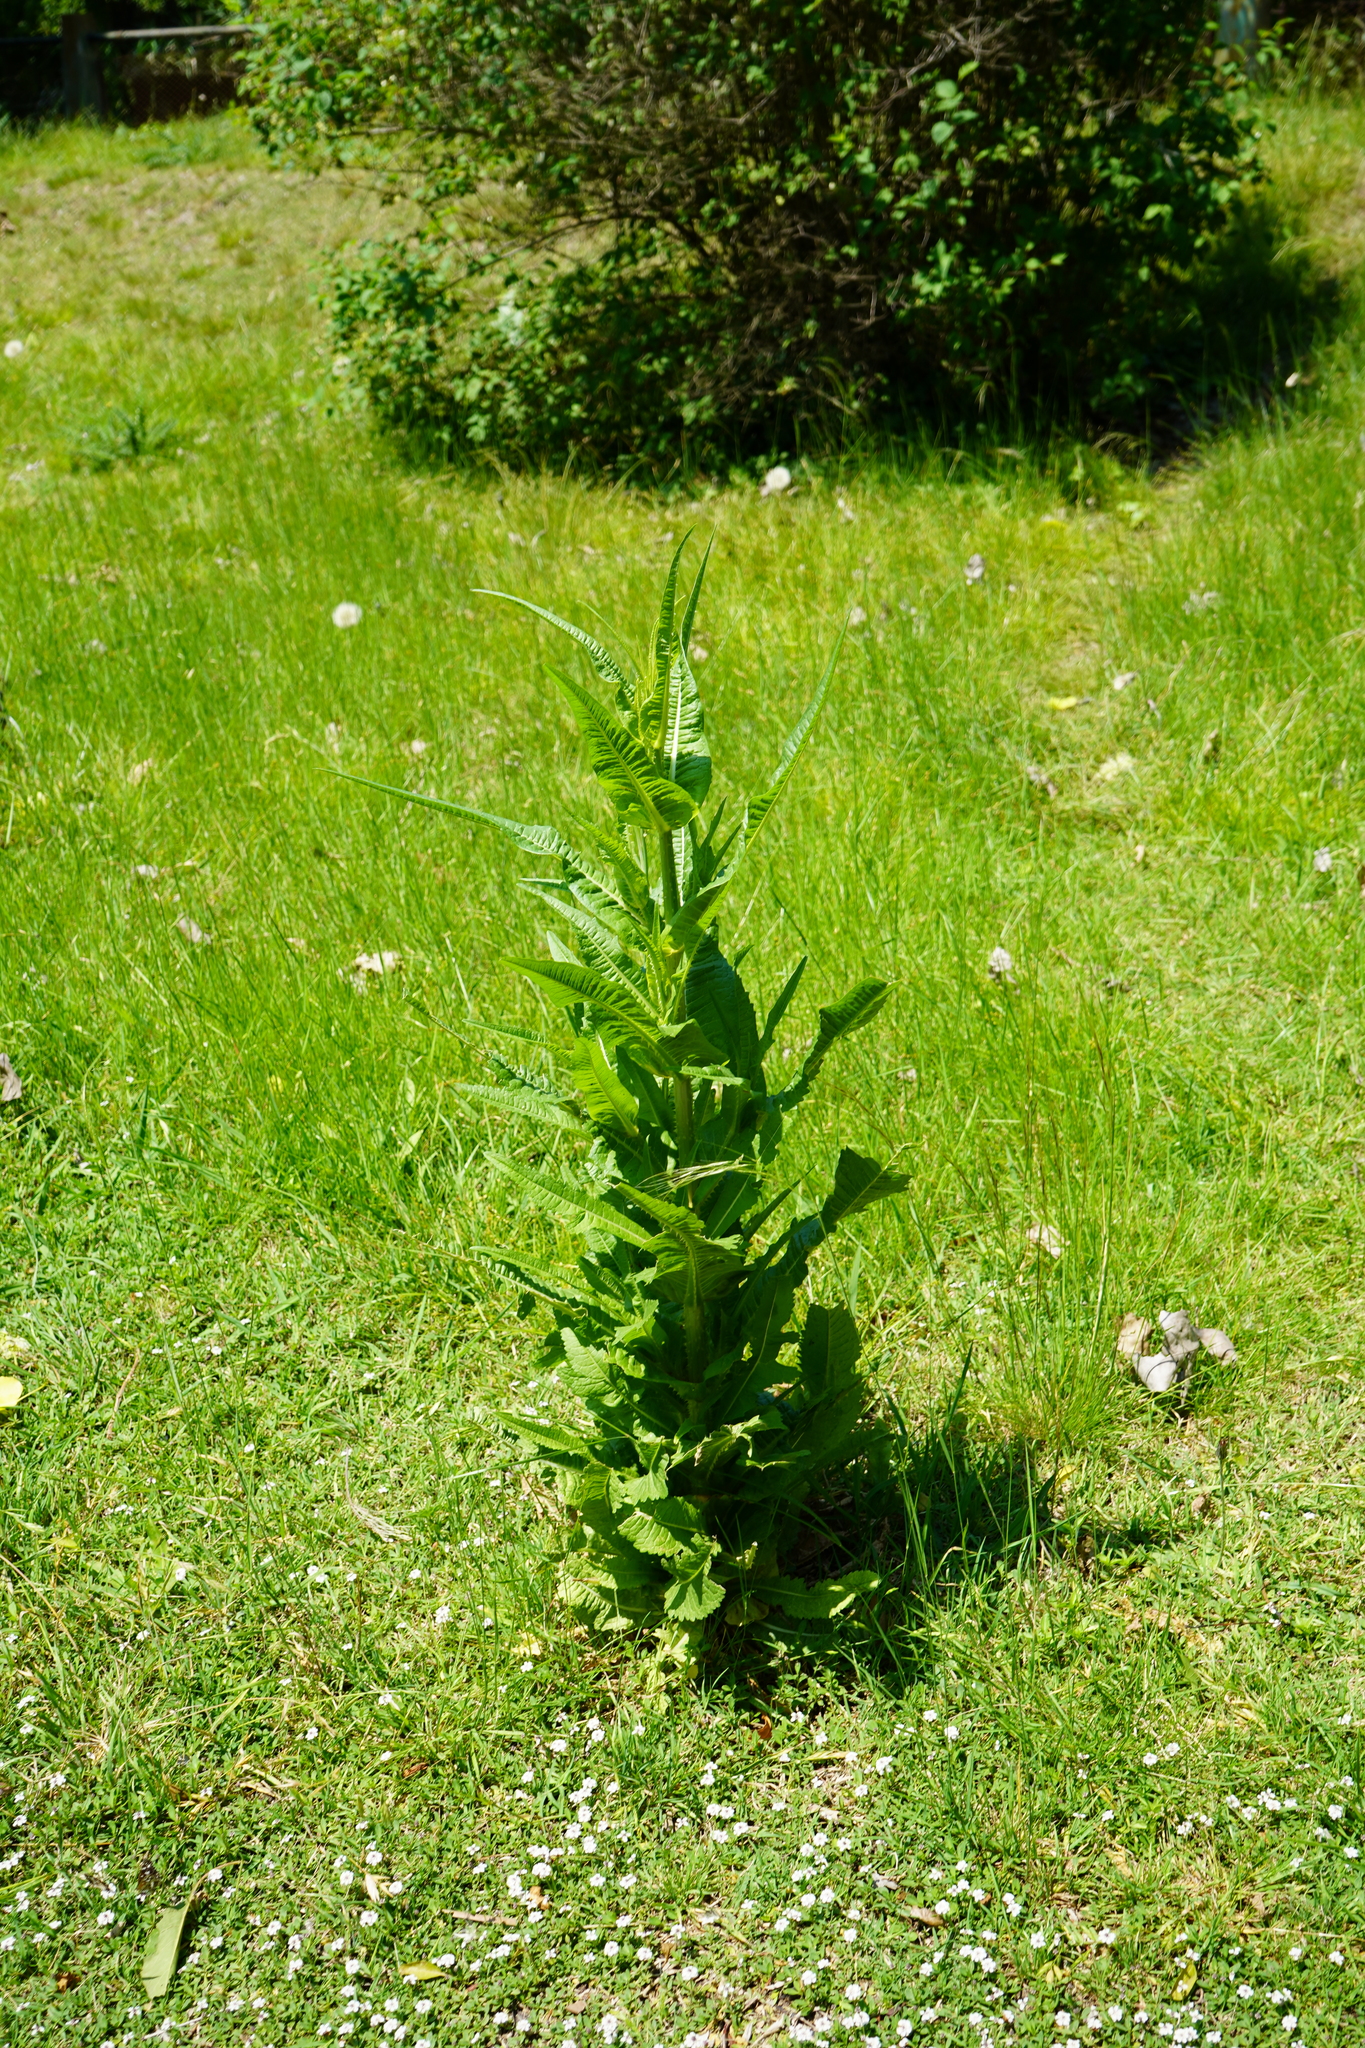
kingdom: Plantae
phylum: Tracheophyta
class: Magnoliopsida
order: Dipsacales
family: Caprifoliaceae
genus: Dipsacus
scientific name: Dipsacus fullonum
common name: Teasel
